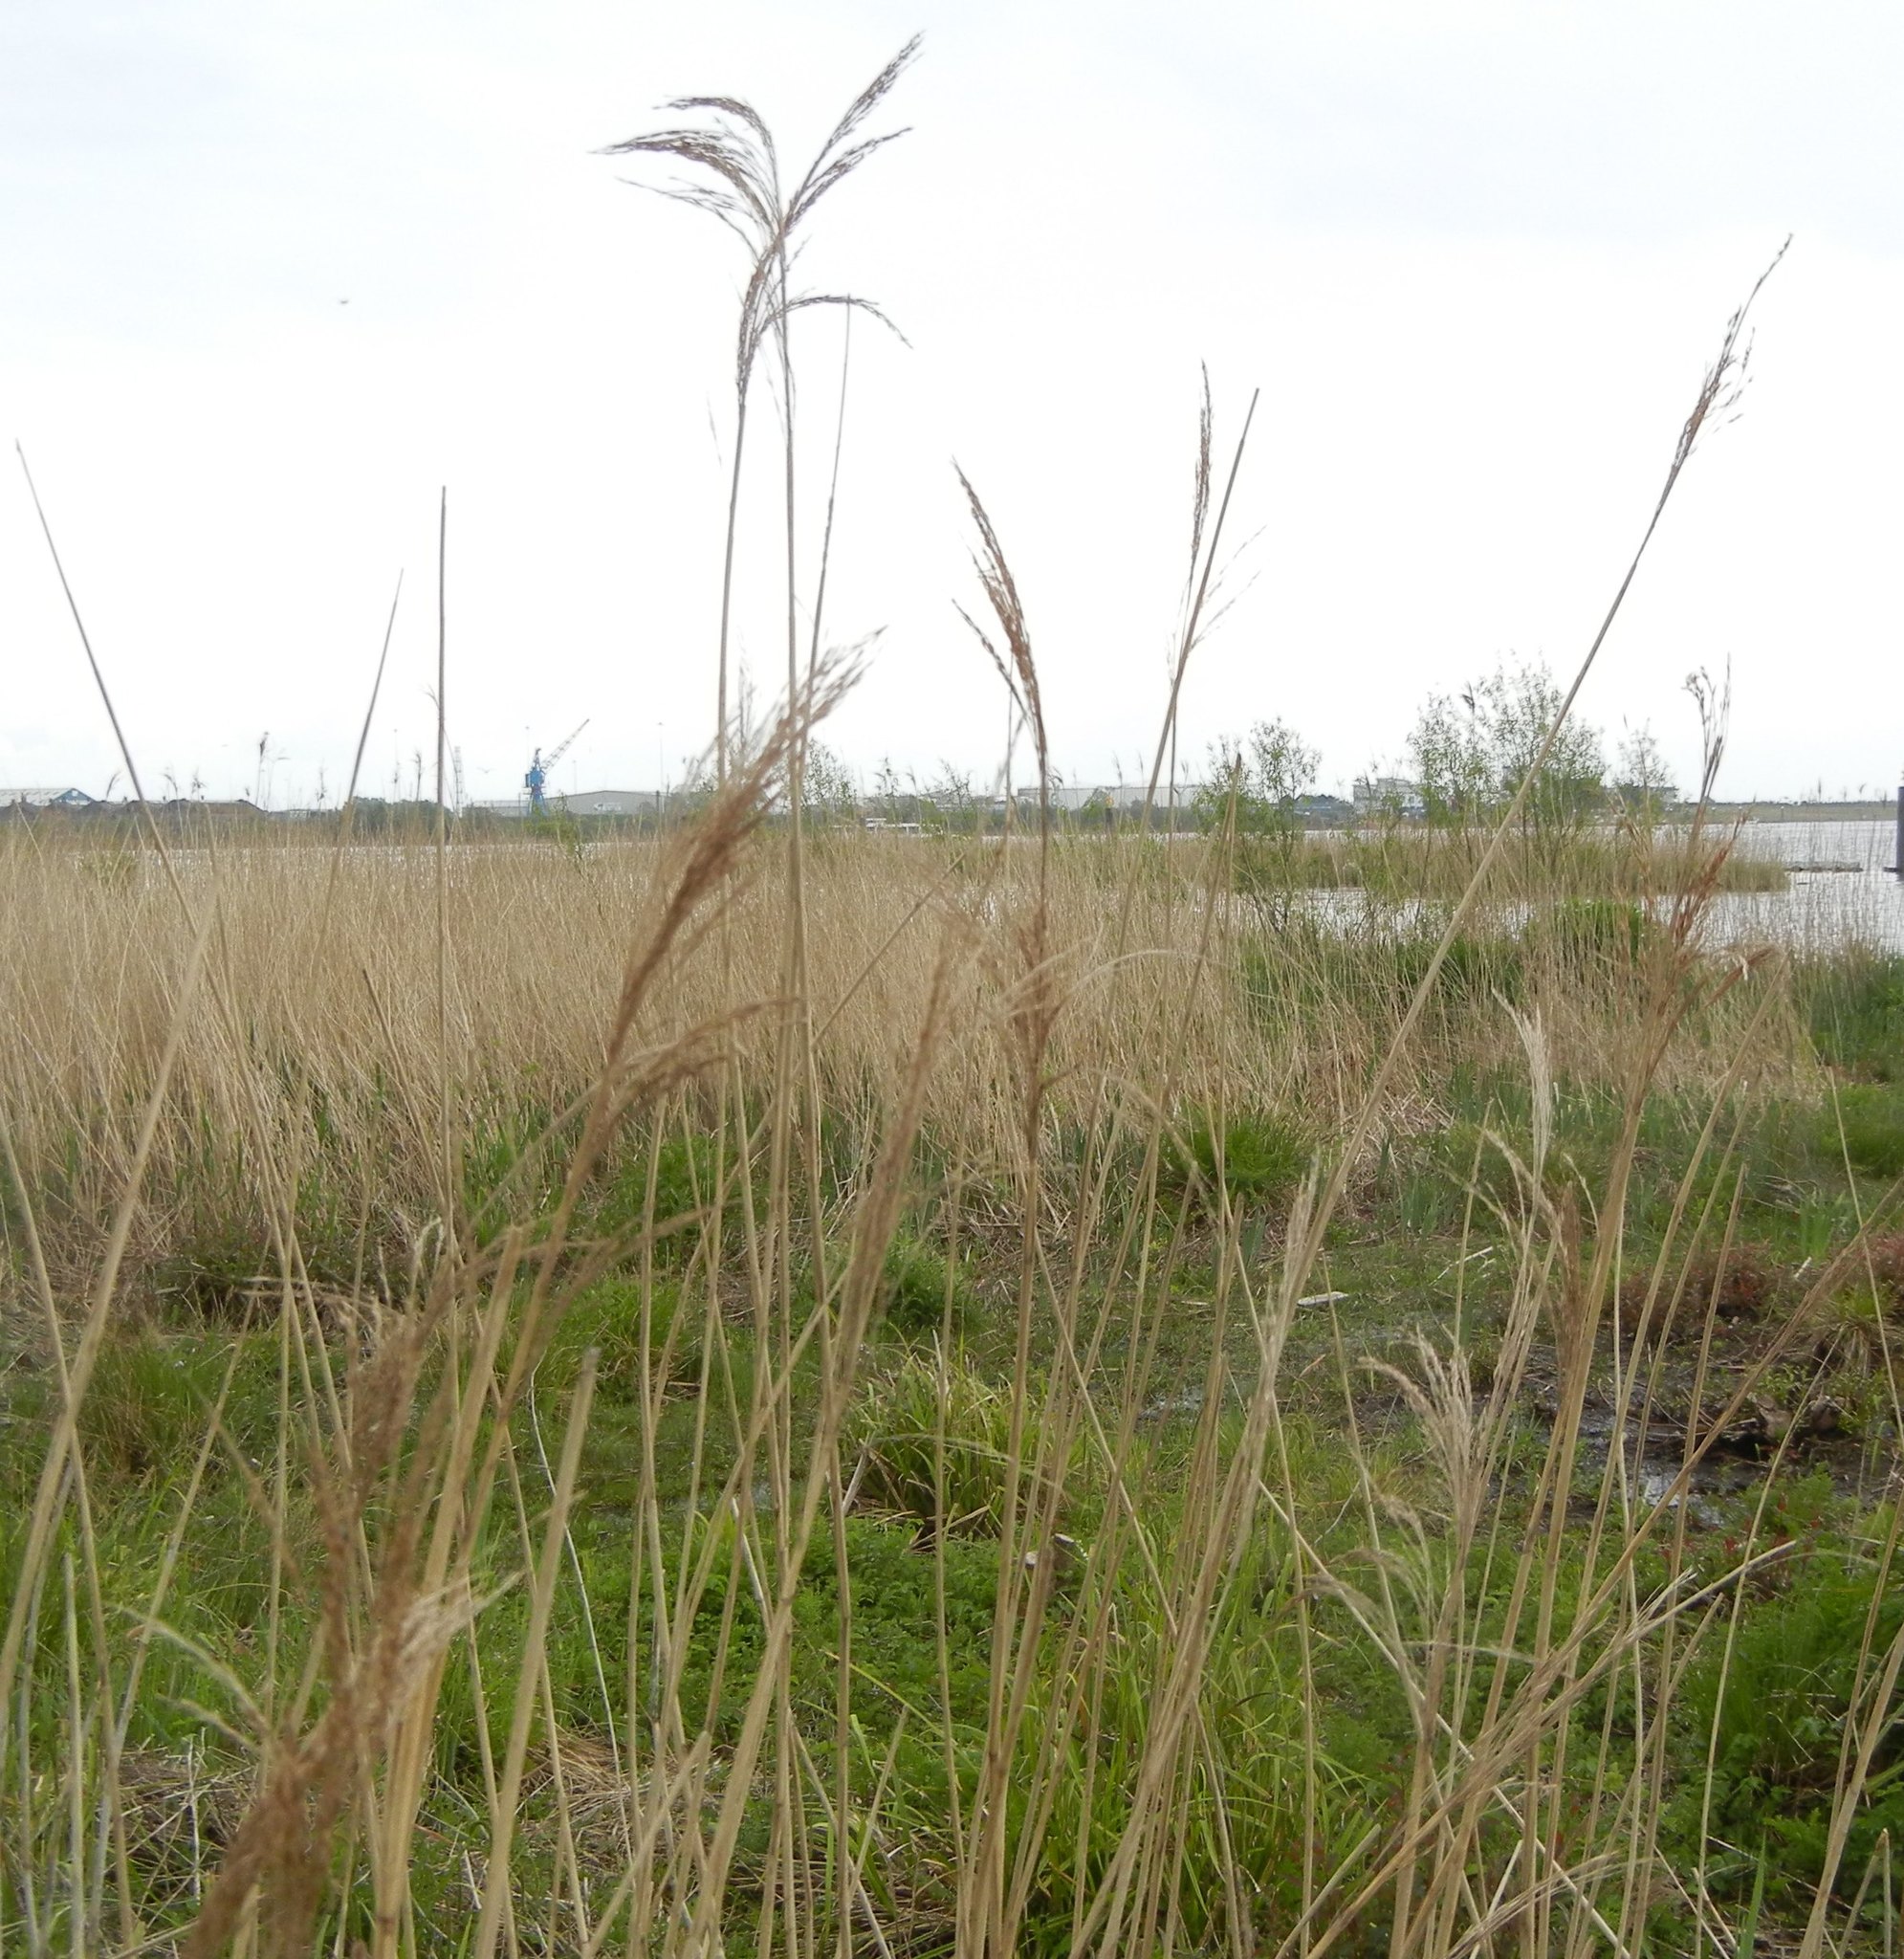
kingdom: Plantae
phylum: Tracheophyta
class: Liliopsida
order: Poales
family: Poaceae
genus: Phragmites
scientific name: Phragmites australis
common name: Common reed
